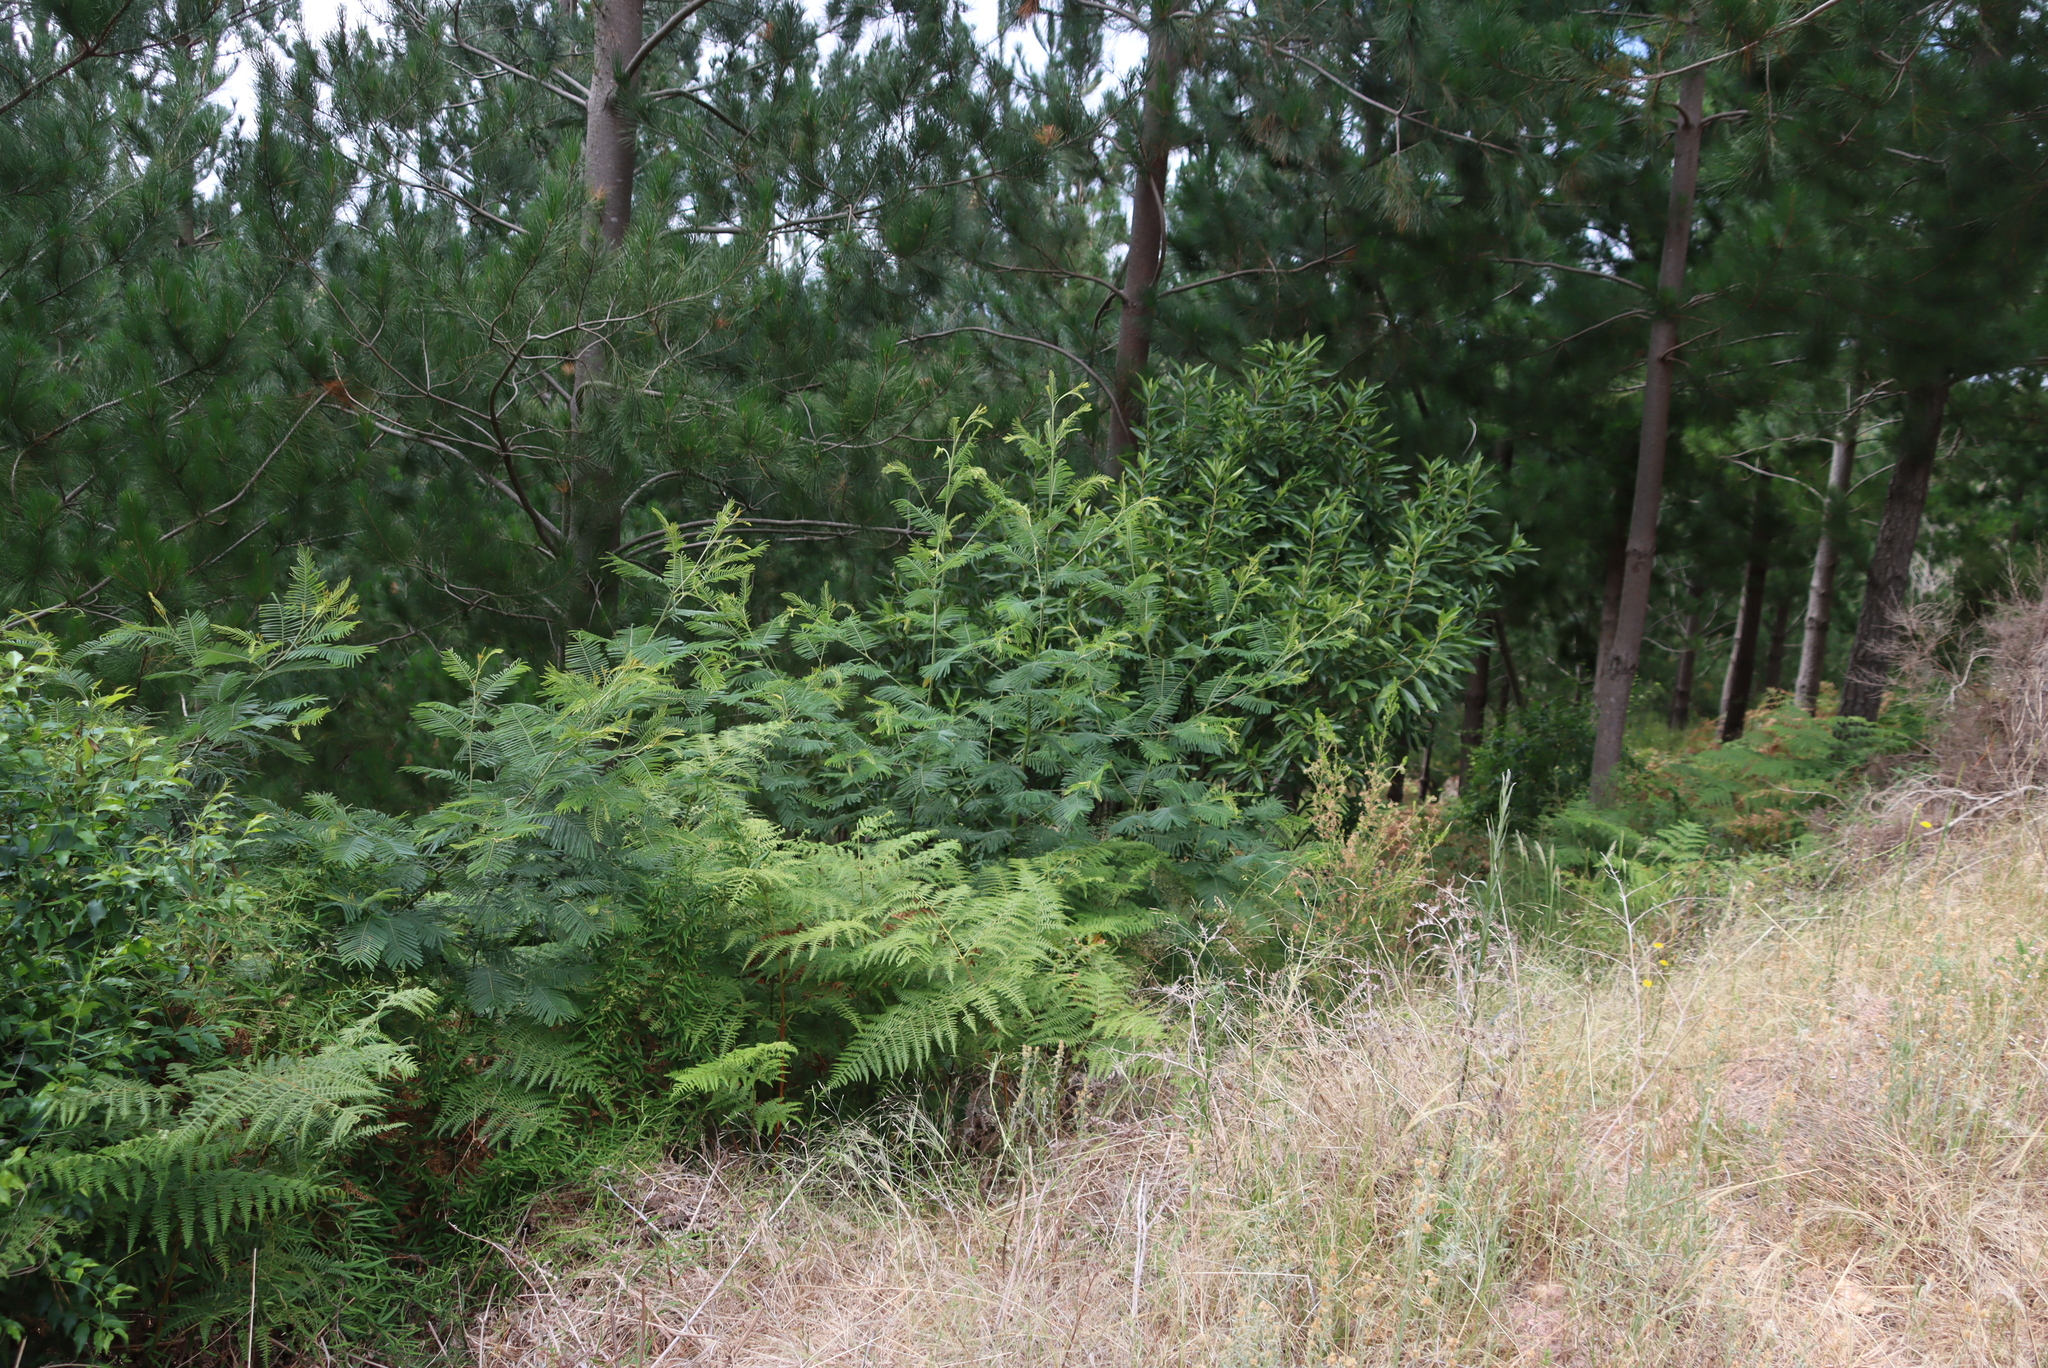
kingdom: Plantae
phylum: Tracheophyta
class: Magnoliopsida
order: Fabales
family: Fabaceae
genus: Acacia
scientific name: Acacia mearnsii
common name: Black wattle
